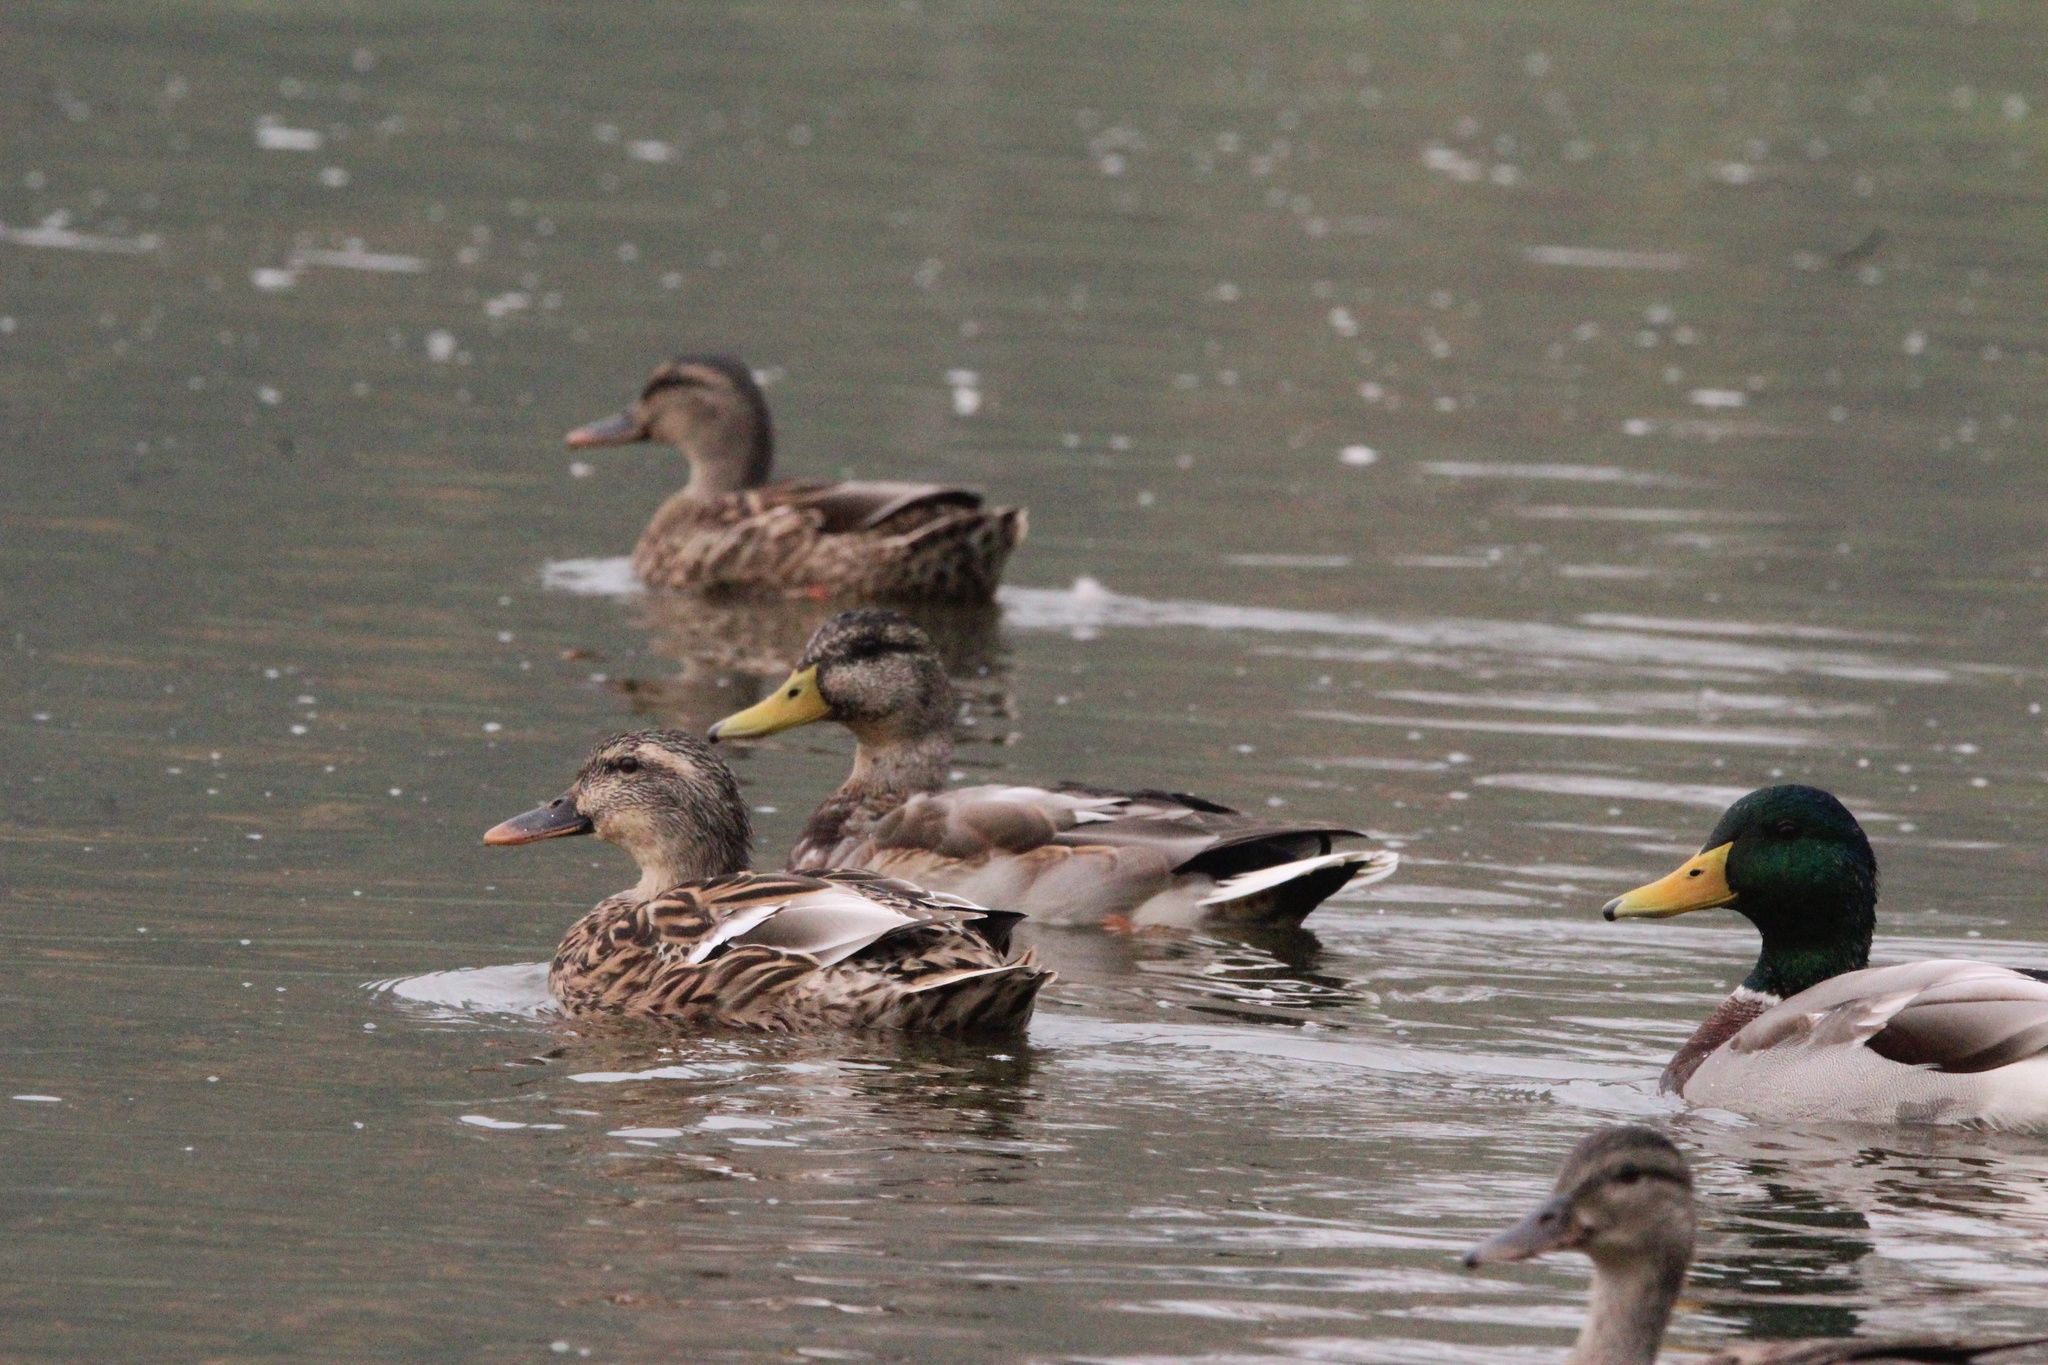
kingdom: Animalia
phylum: Chordata
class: Aves
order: Anseriformes
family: Anatidae
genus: Anas
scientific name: Anas platyrhynchos
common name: Mallard
